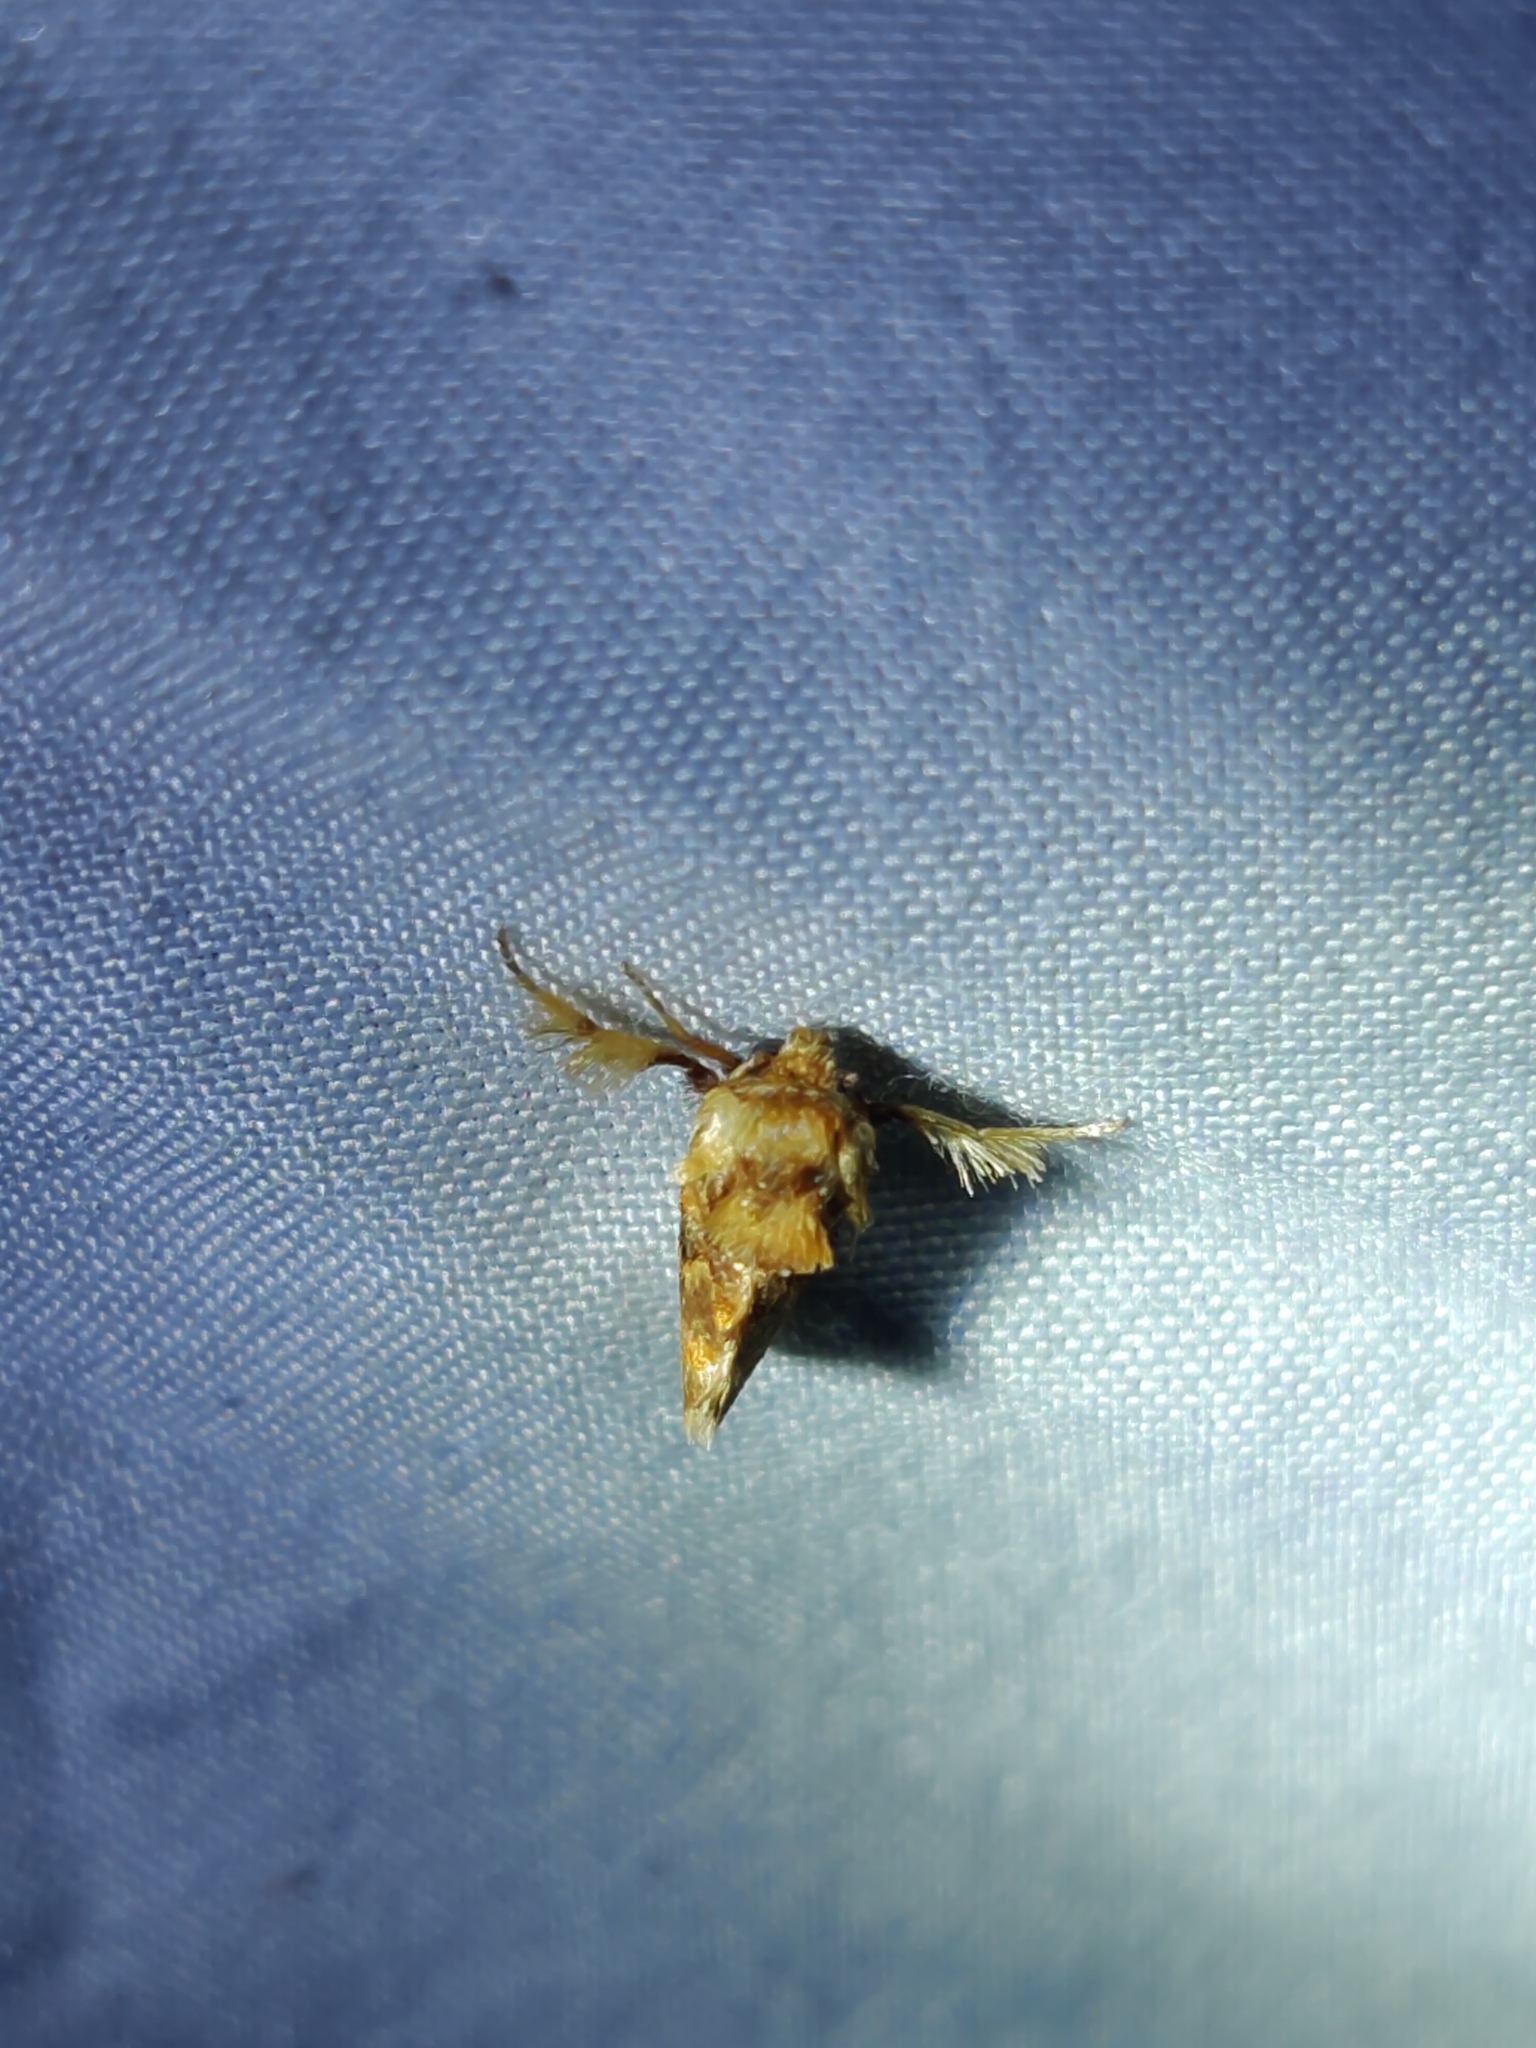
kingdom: Animalia
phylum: Arthropoda
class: Insecta
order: Lepidoptera
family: Limacodidae
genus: Isochaetes
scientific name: Isochaetes beutenmuelleri
